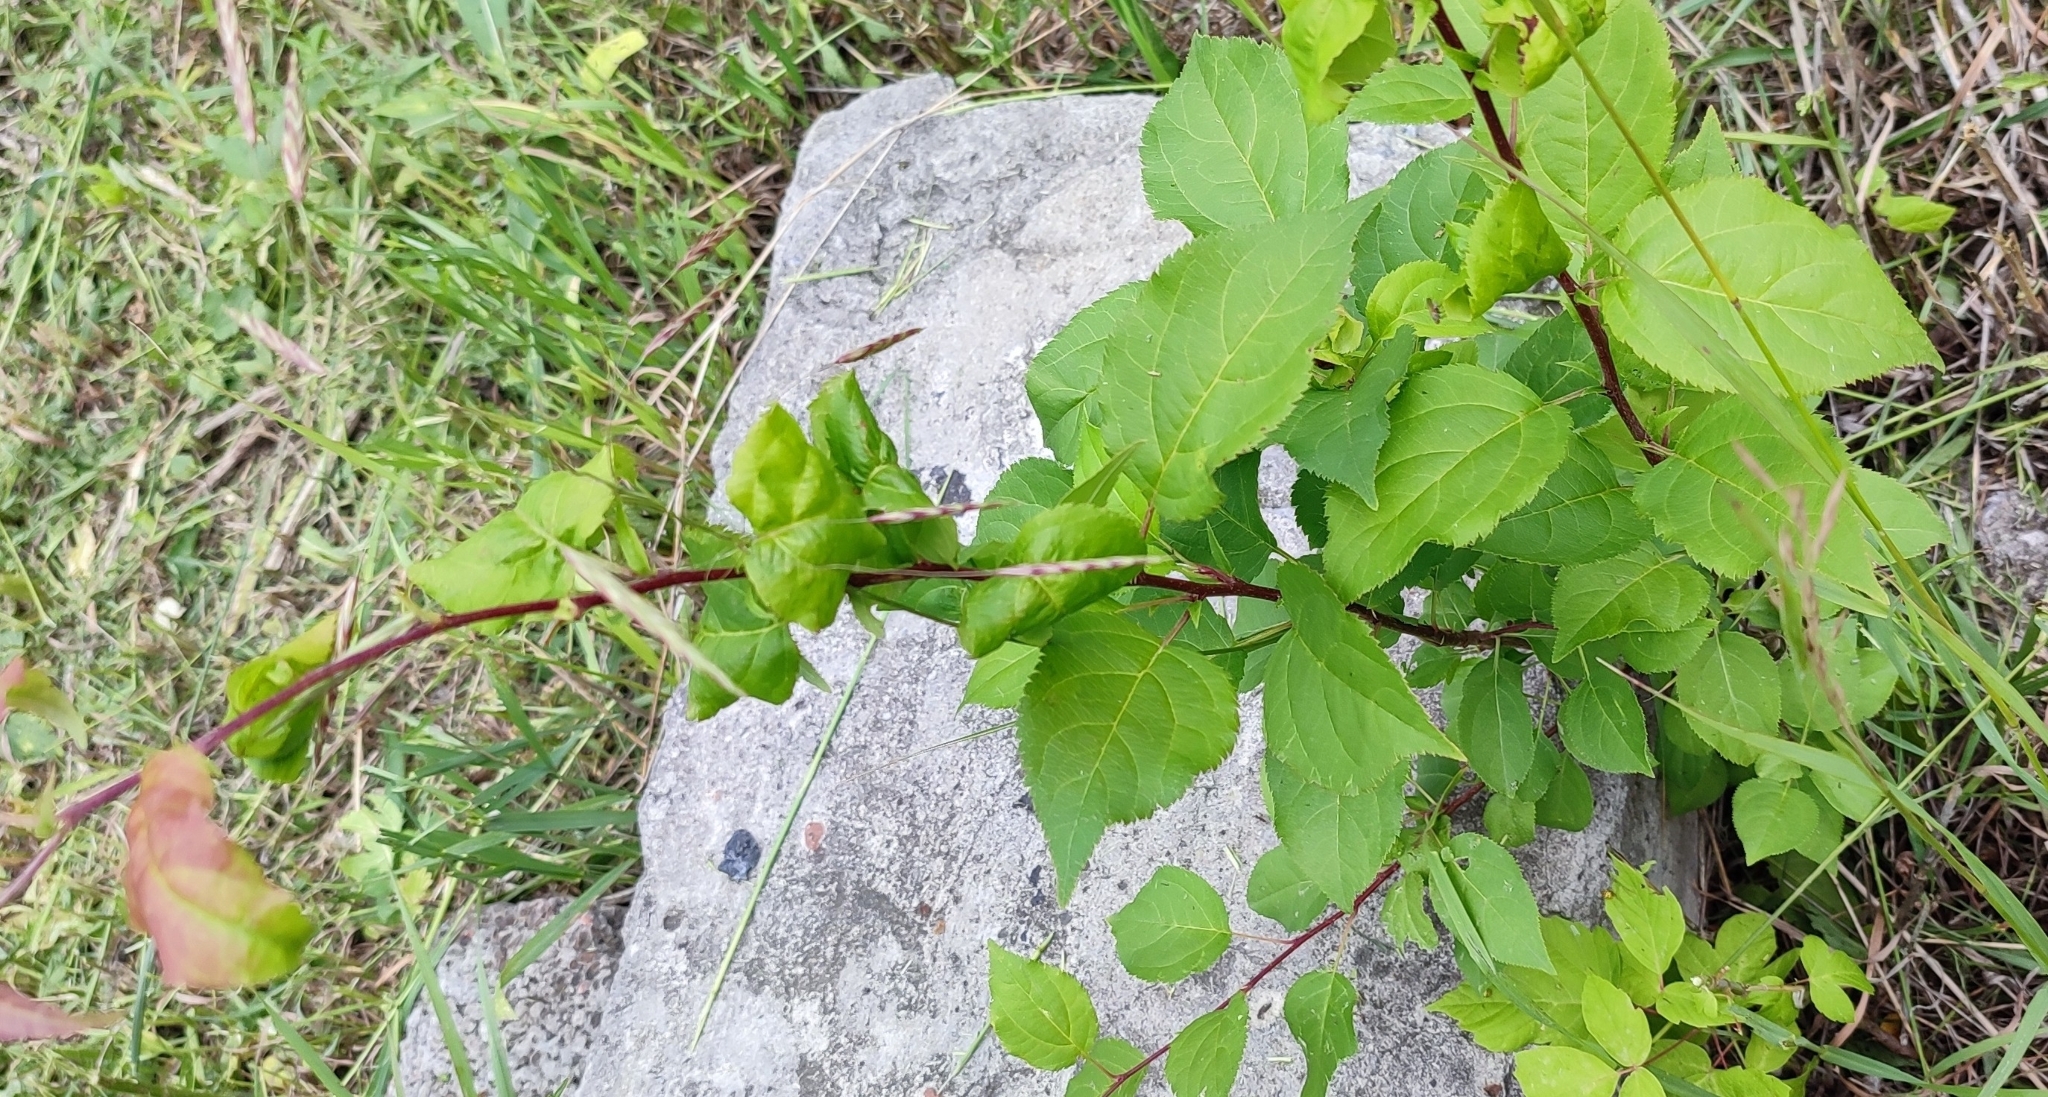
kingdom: Plantae
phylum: Tracheophyta
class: Magnoliopsida
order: Rosales
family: Rosaceae
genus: Malus
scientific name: Malus baccata
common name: Siberian crab
